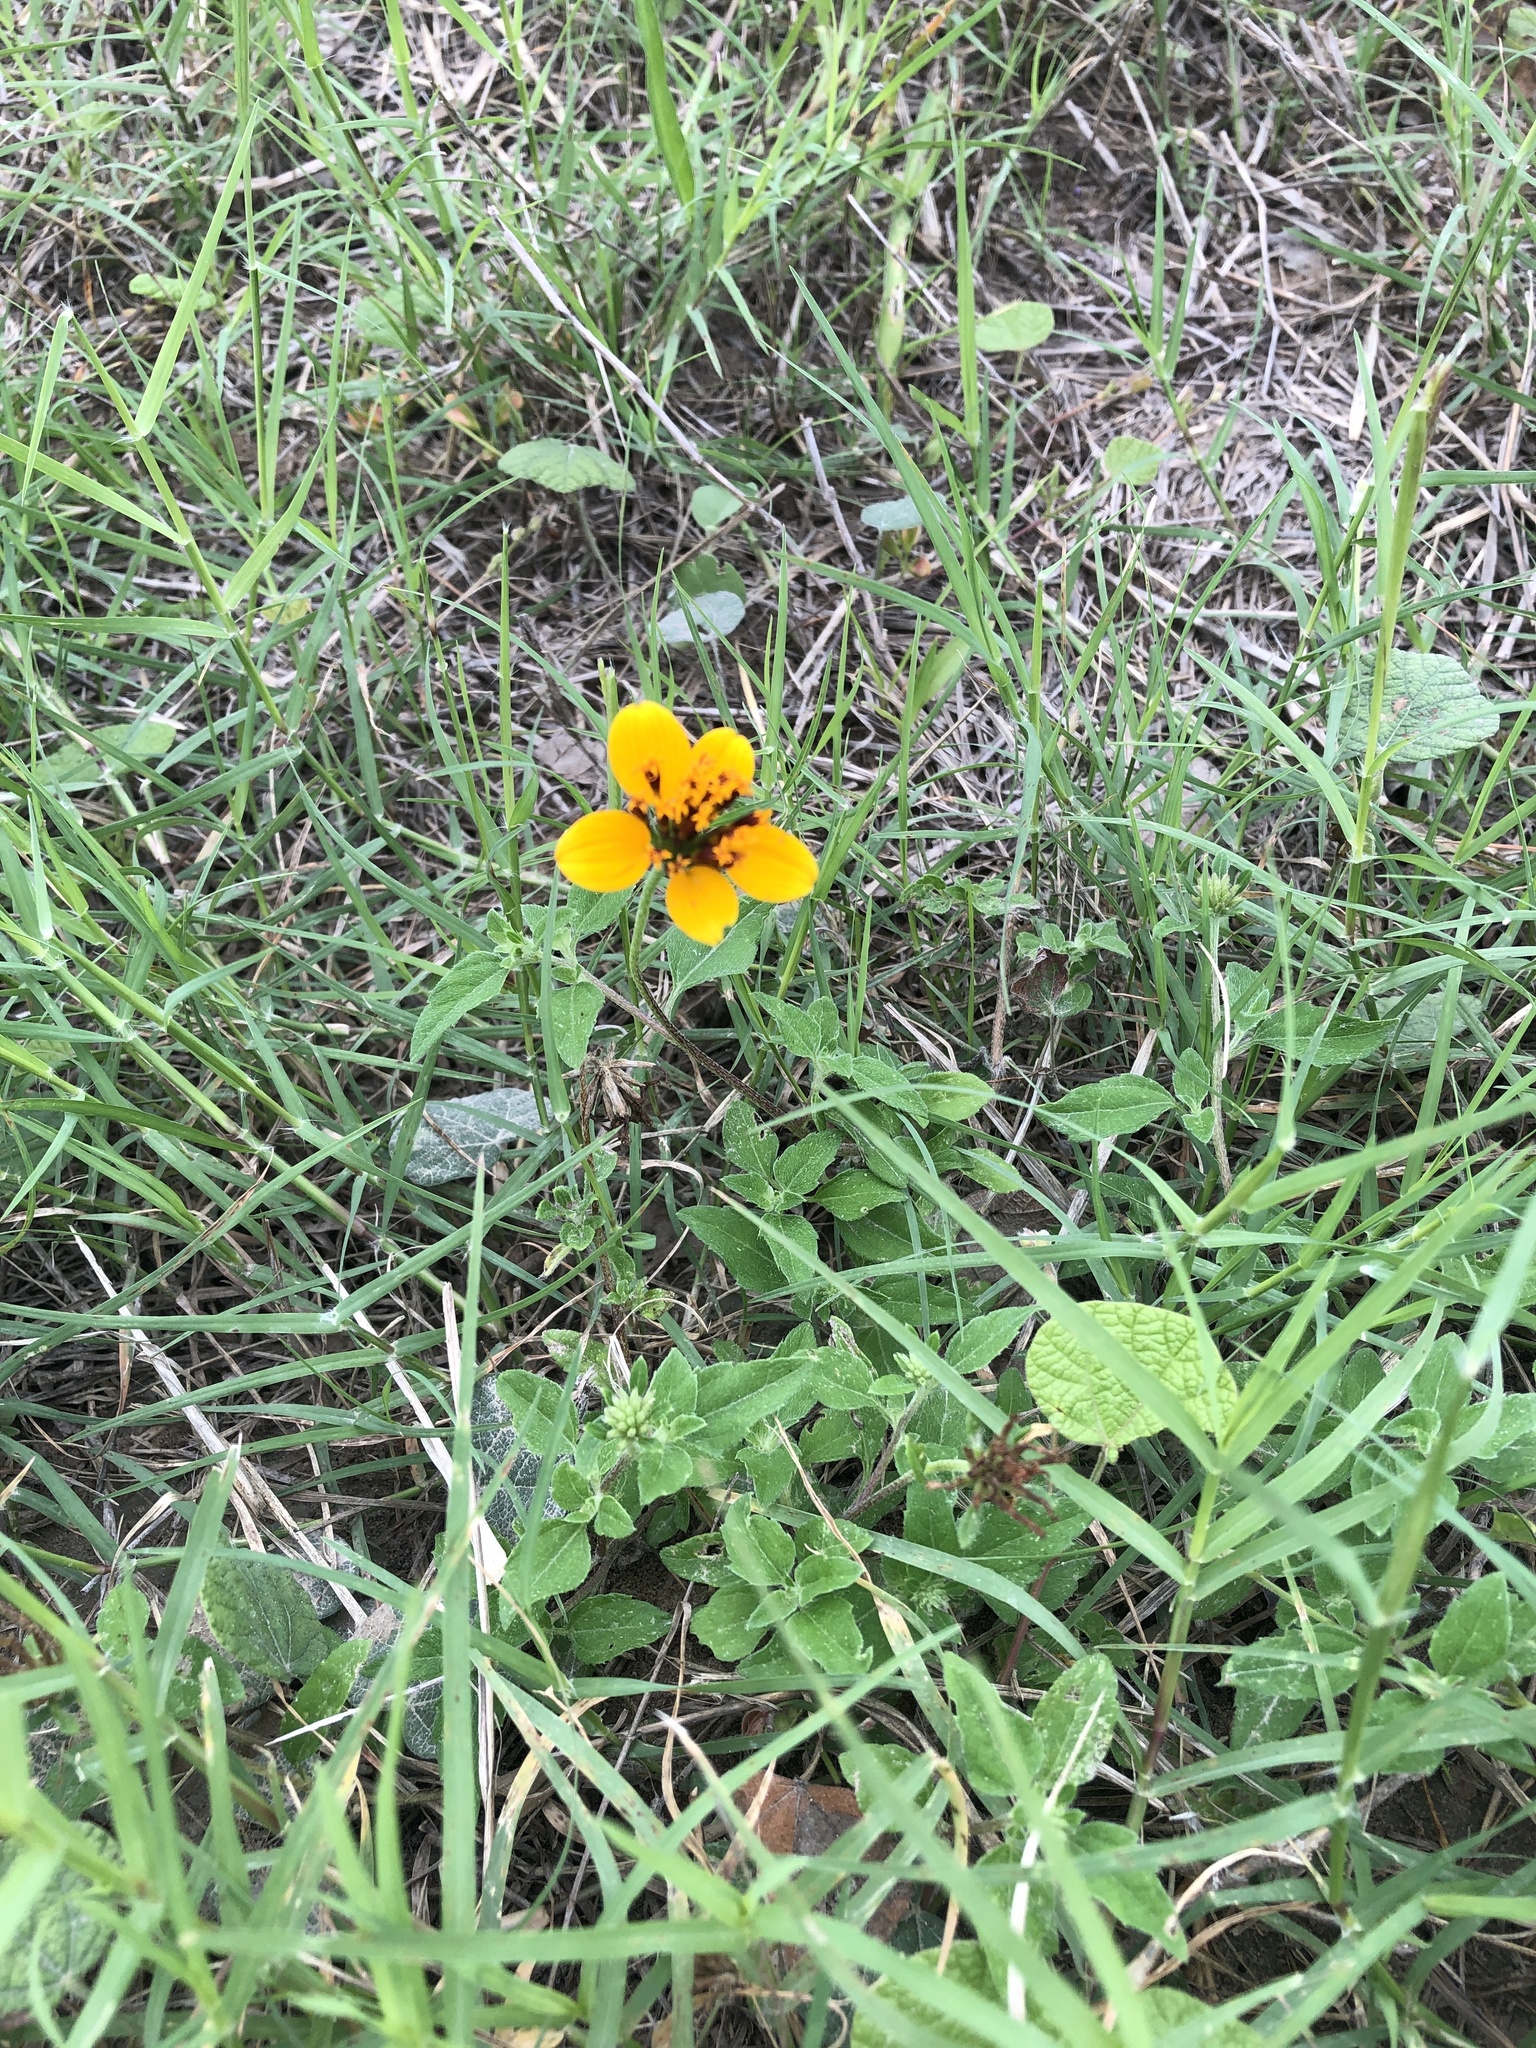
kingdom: Plantae
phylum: Tracheophyta
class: Magnoliopsida
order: Asterales
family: Asteraceae
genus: Sclerocarpus
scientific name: Sclerocarpus uniserialis
